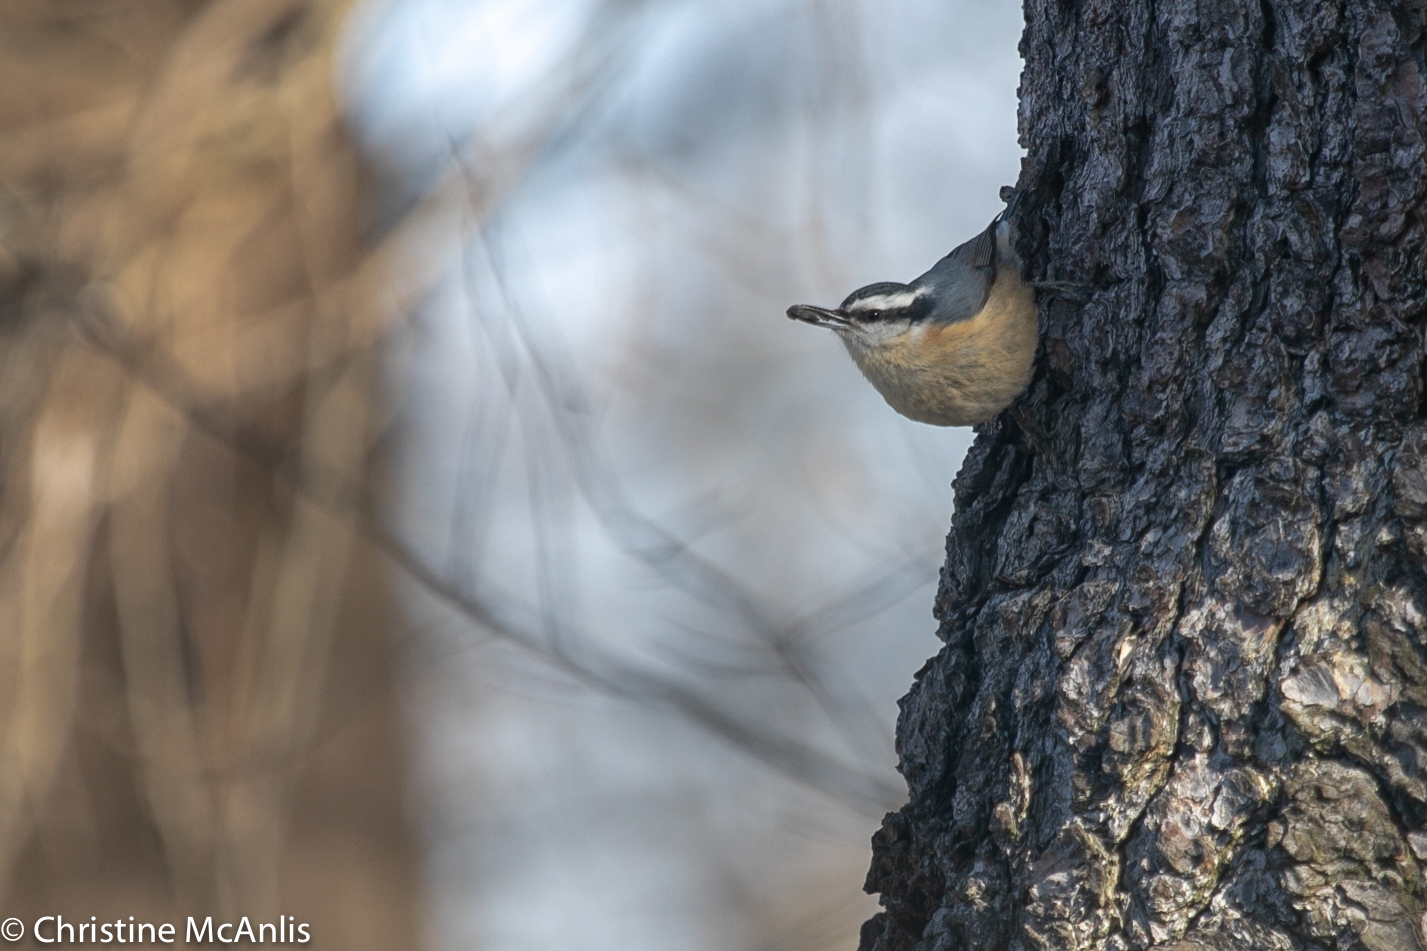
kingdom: Animalia
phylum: Chordata
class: Aves
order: Passeriformes
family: Sittidae
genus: Sitta
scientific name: Sitta canadensis
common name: Red-breasted nuthatch
